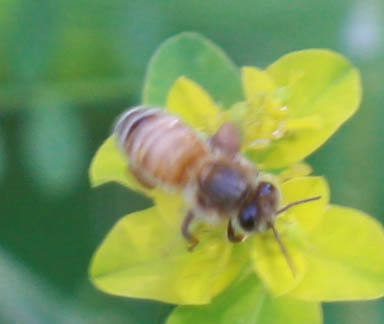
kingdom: Animalia
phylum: Arthropoda
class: Insecta
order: Hymenoptera
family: Apidae
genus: Apis
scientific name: Apis mellifera
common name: Honey bee
